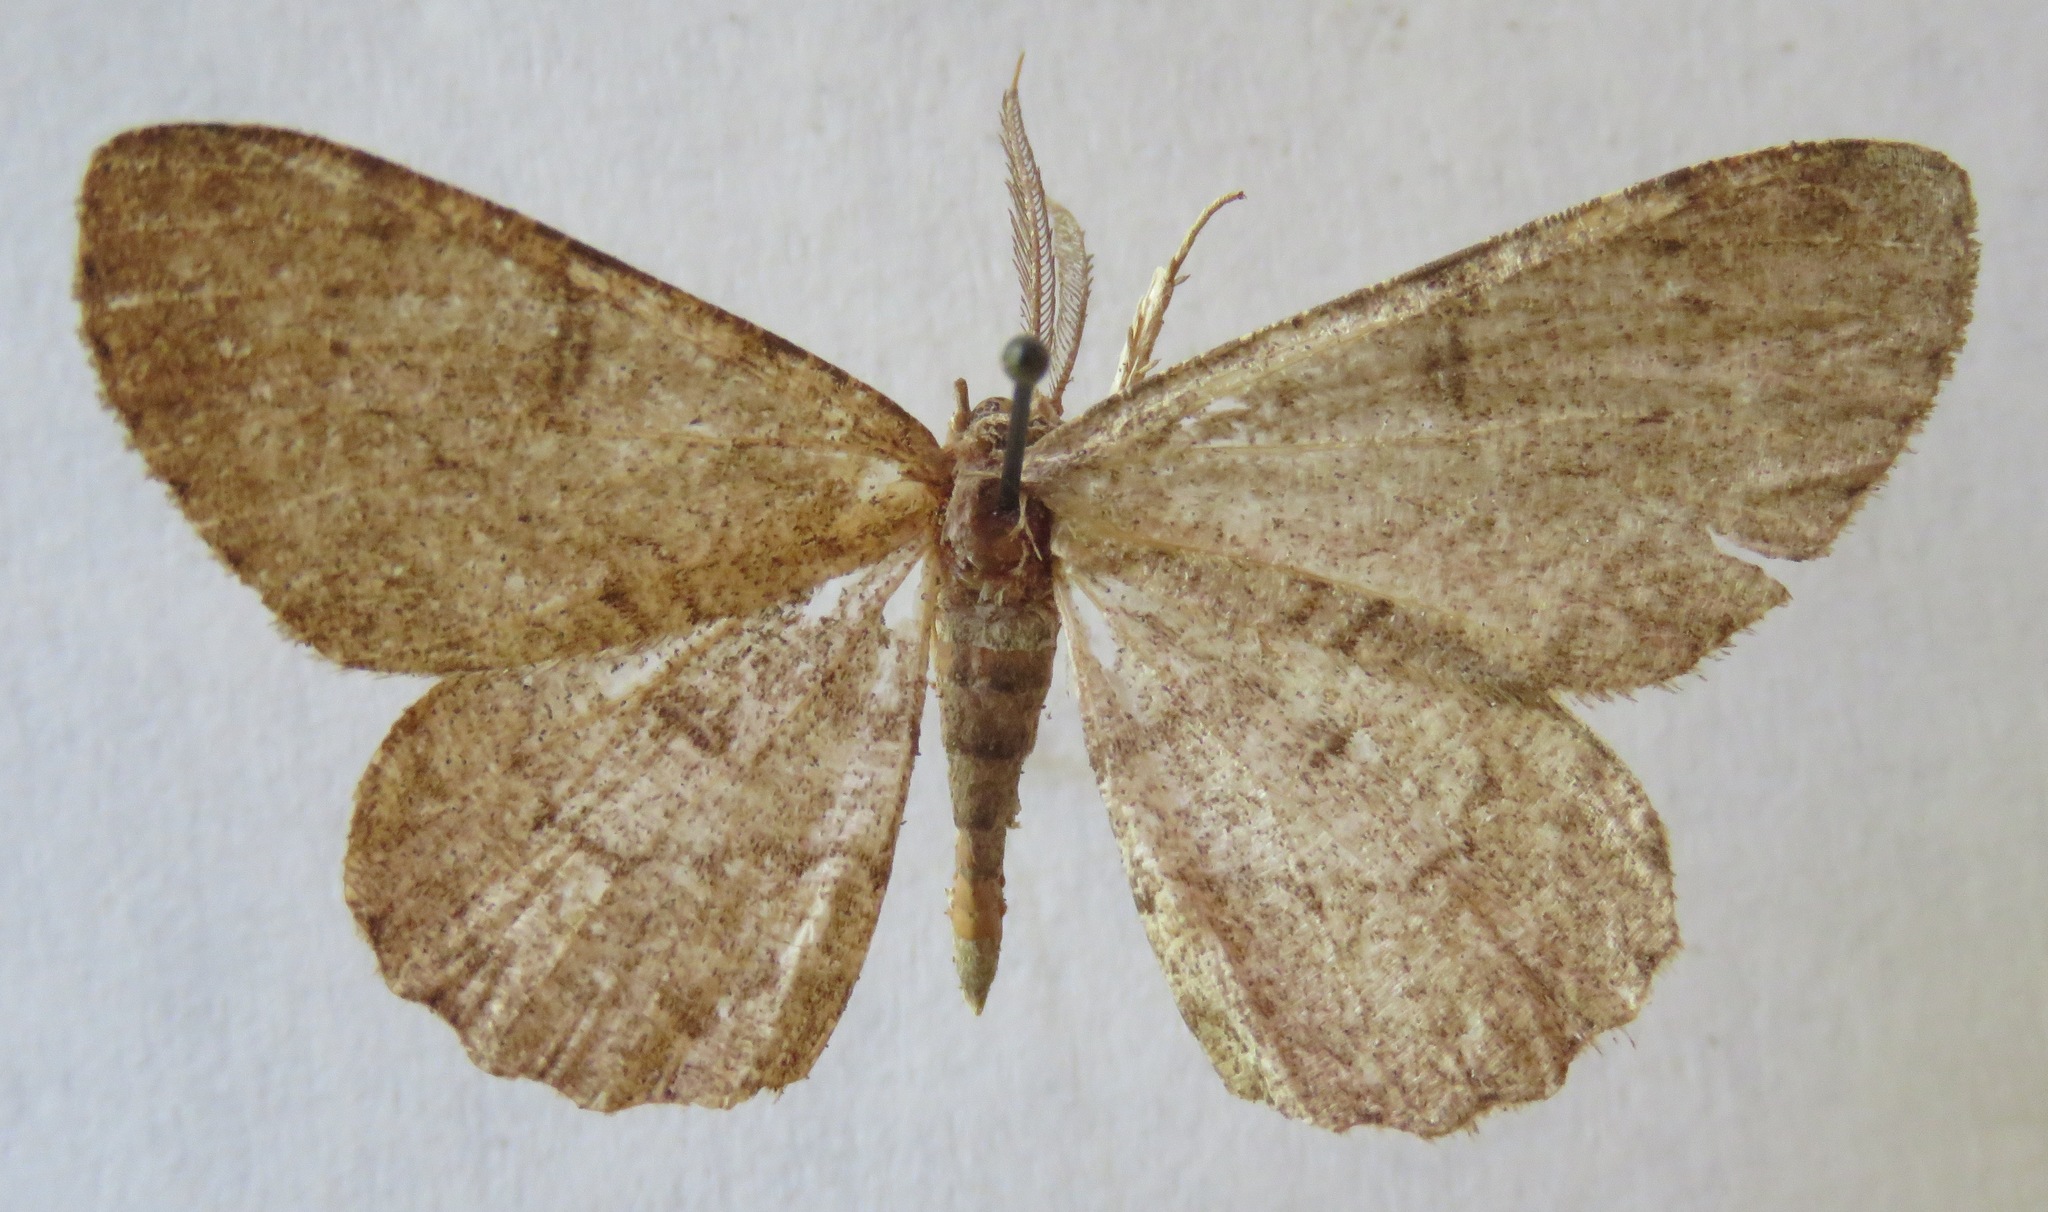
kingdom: Animalia
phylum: Arthropoda
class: Insecta
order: Lepidoptera
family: Geometridae
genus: Hypomecis
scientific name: Hypomecis punctinalis
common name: Pale oak beauty
